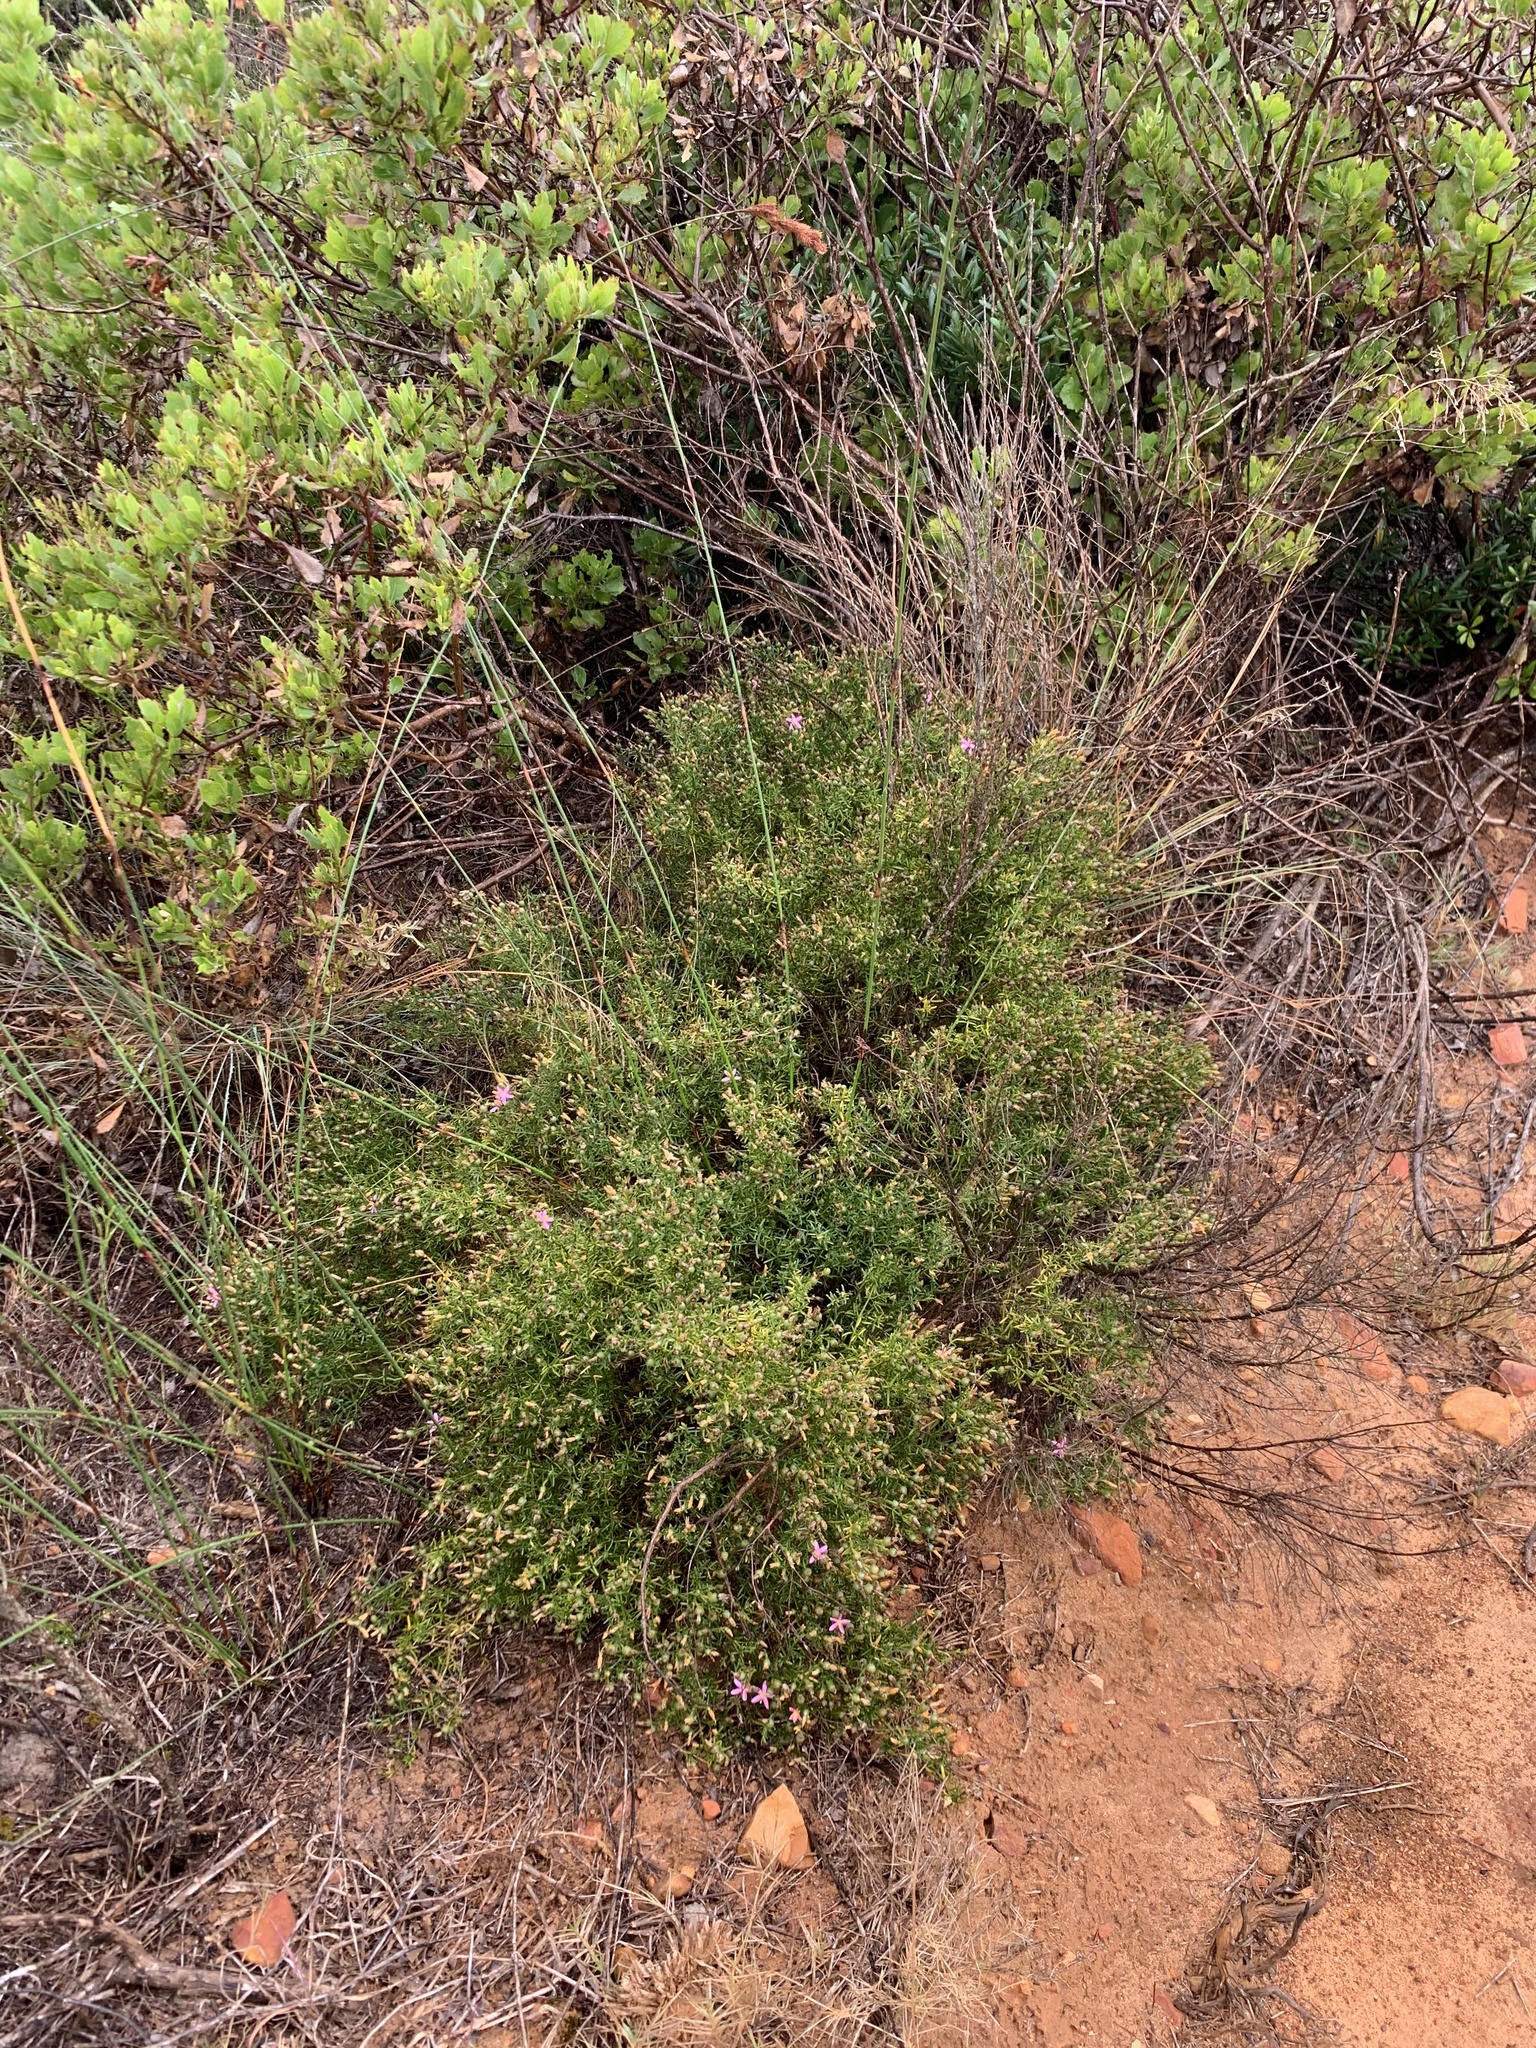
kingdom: Plantae
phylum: Tracheophyta
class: Magnoliopsida
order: Gentianales
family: Gentianaceae
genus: Chironia
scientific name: Chironia baccifera
